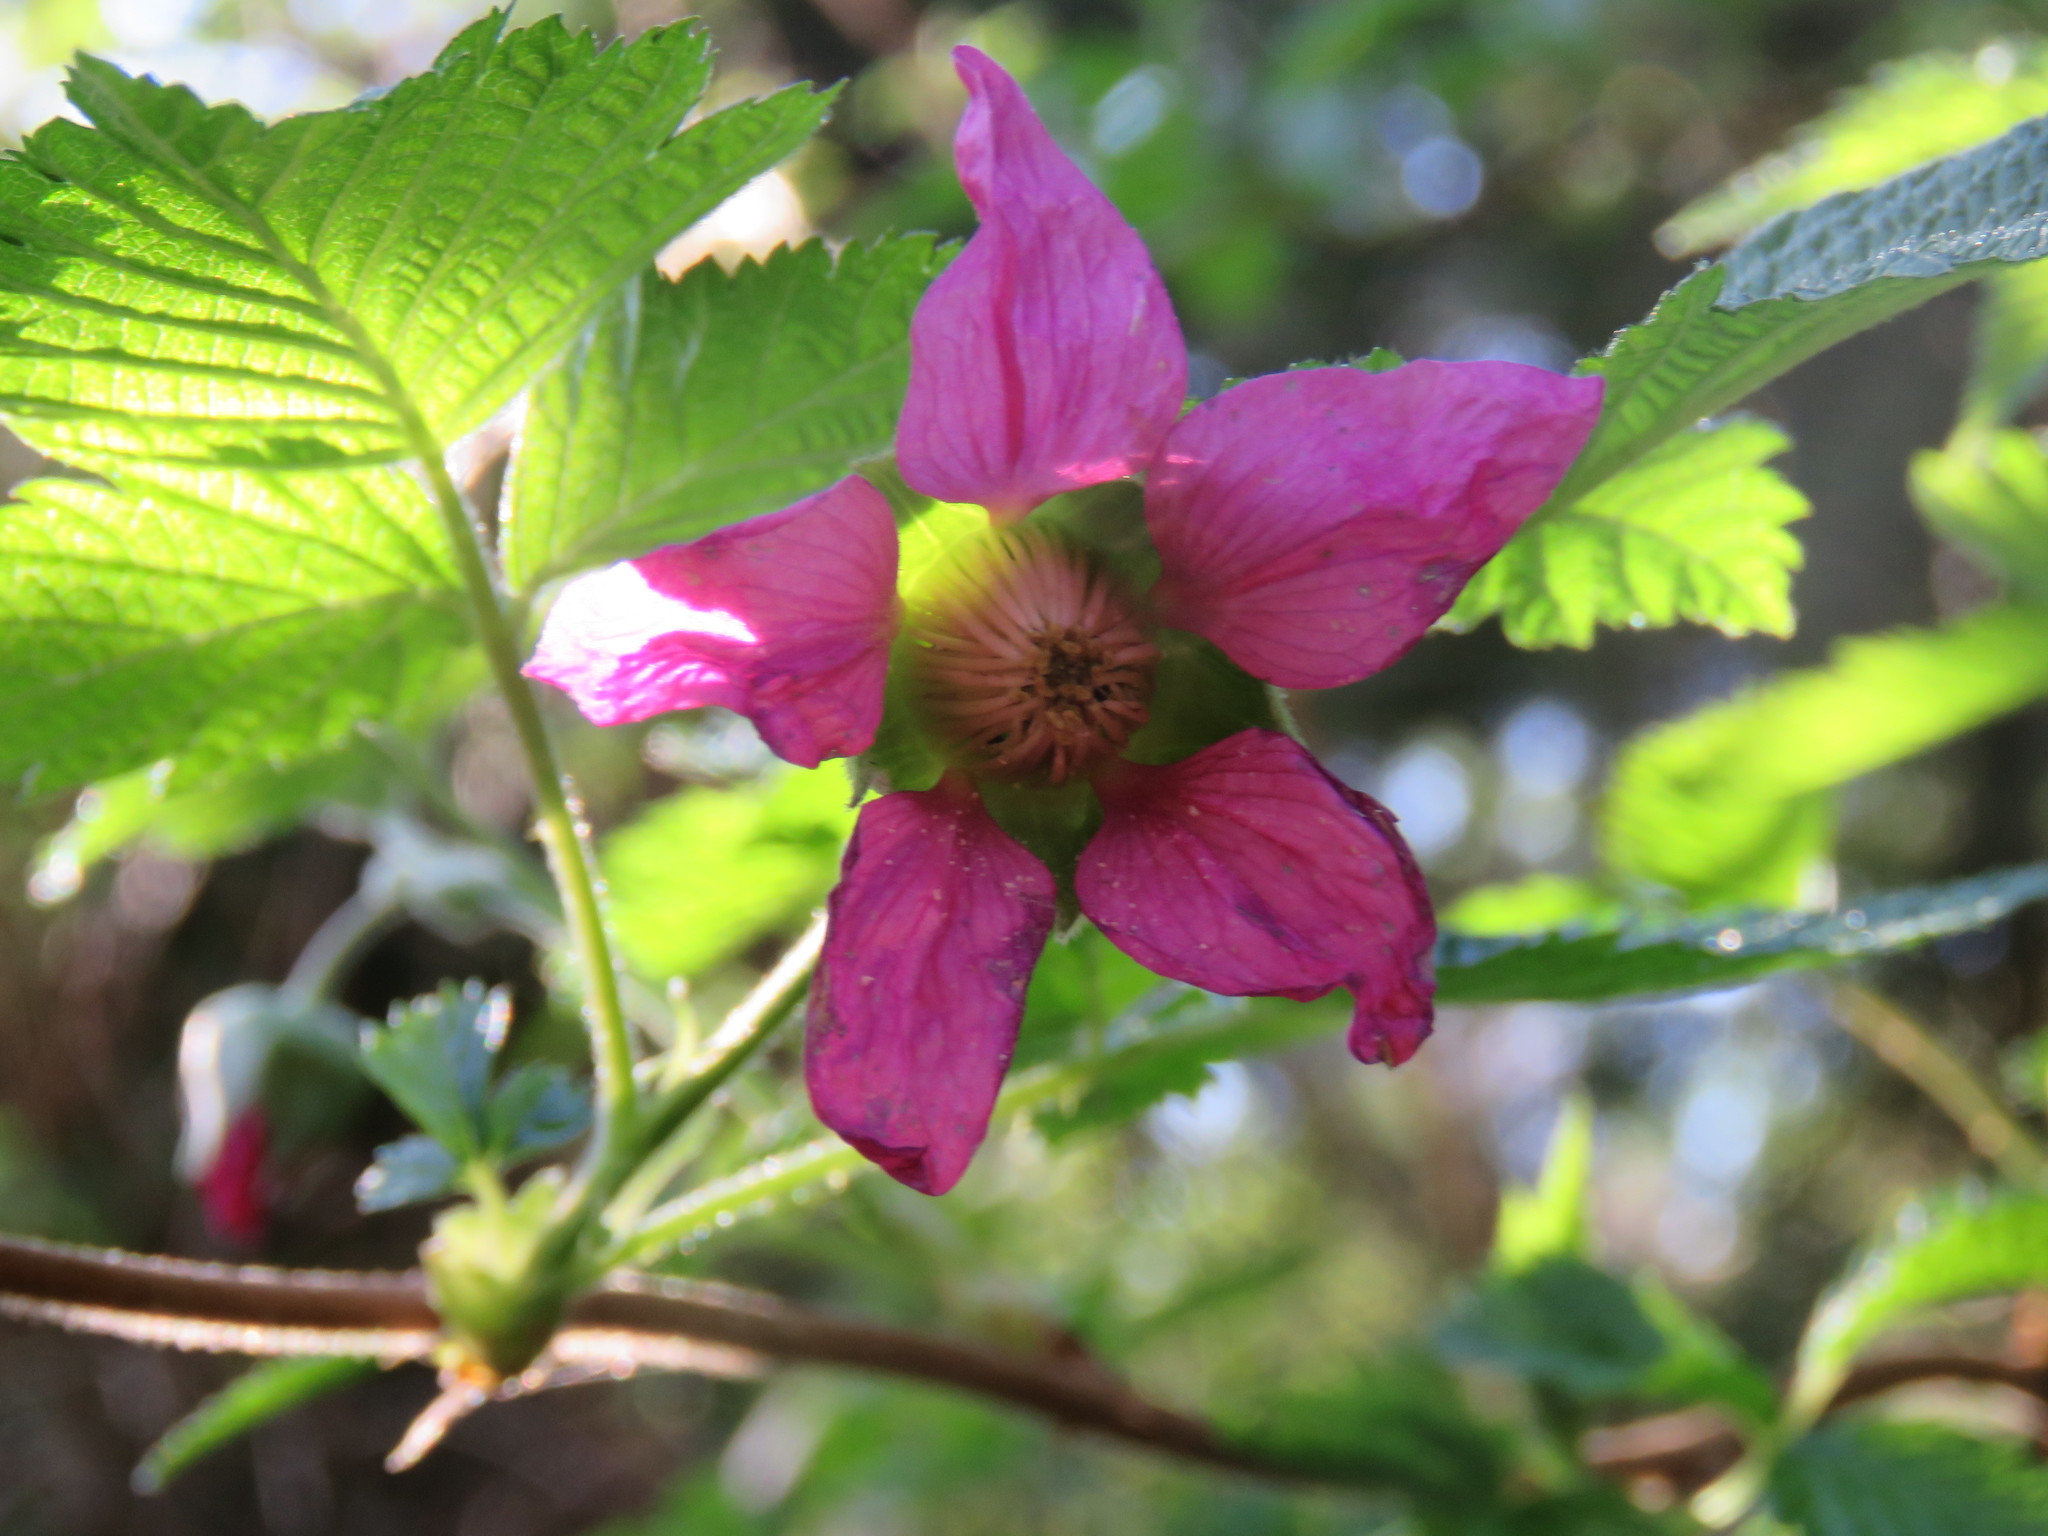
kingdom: Plantae
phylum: Tracheophyta
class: Magnoliopsida
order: Rosales
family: Rosaceae
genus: Rubus
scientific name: Rubus spectabilis
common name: Salmonberry
